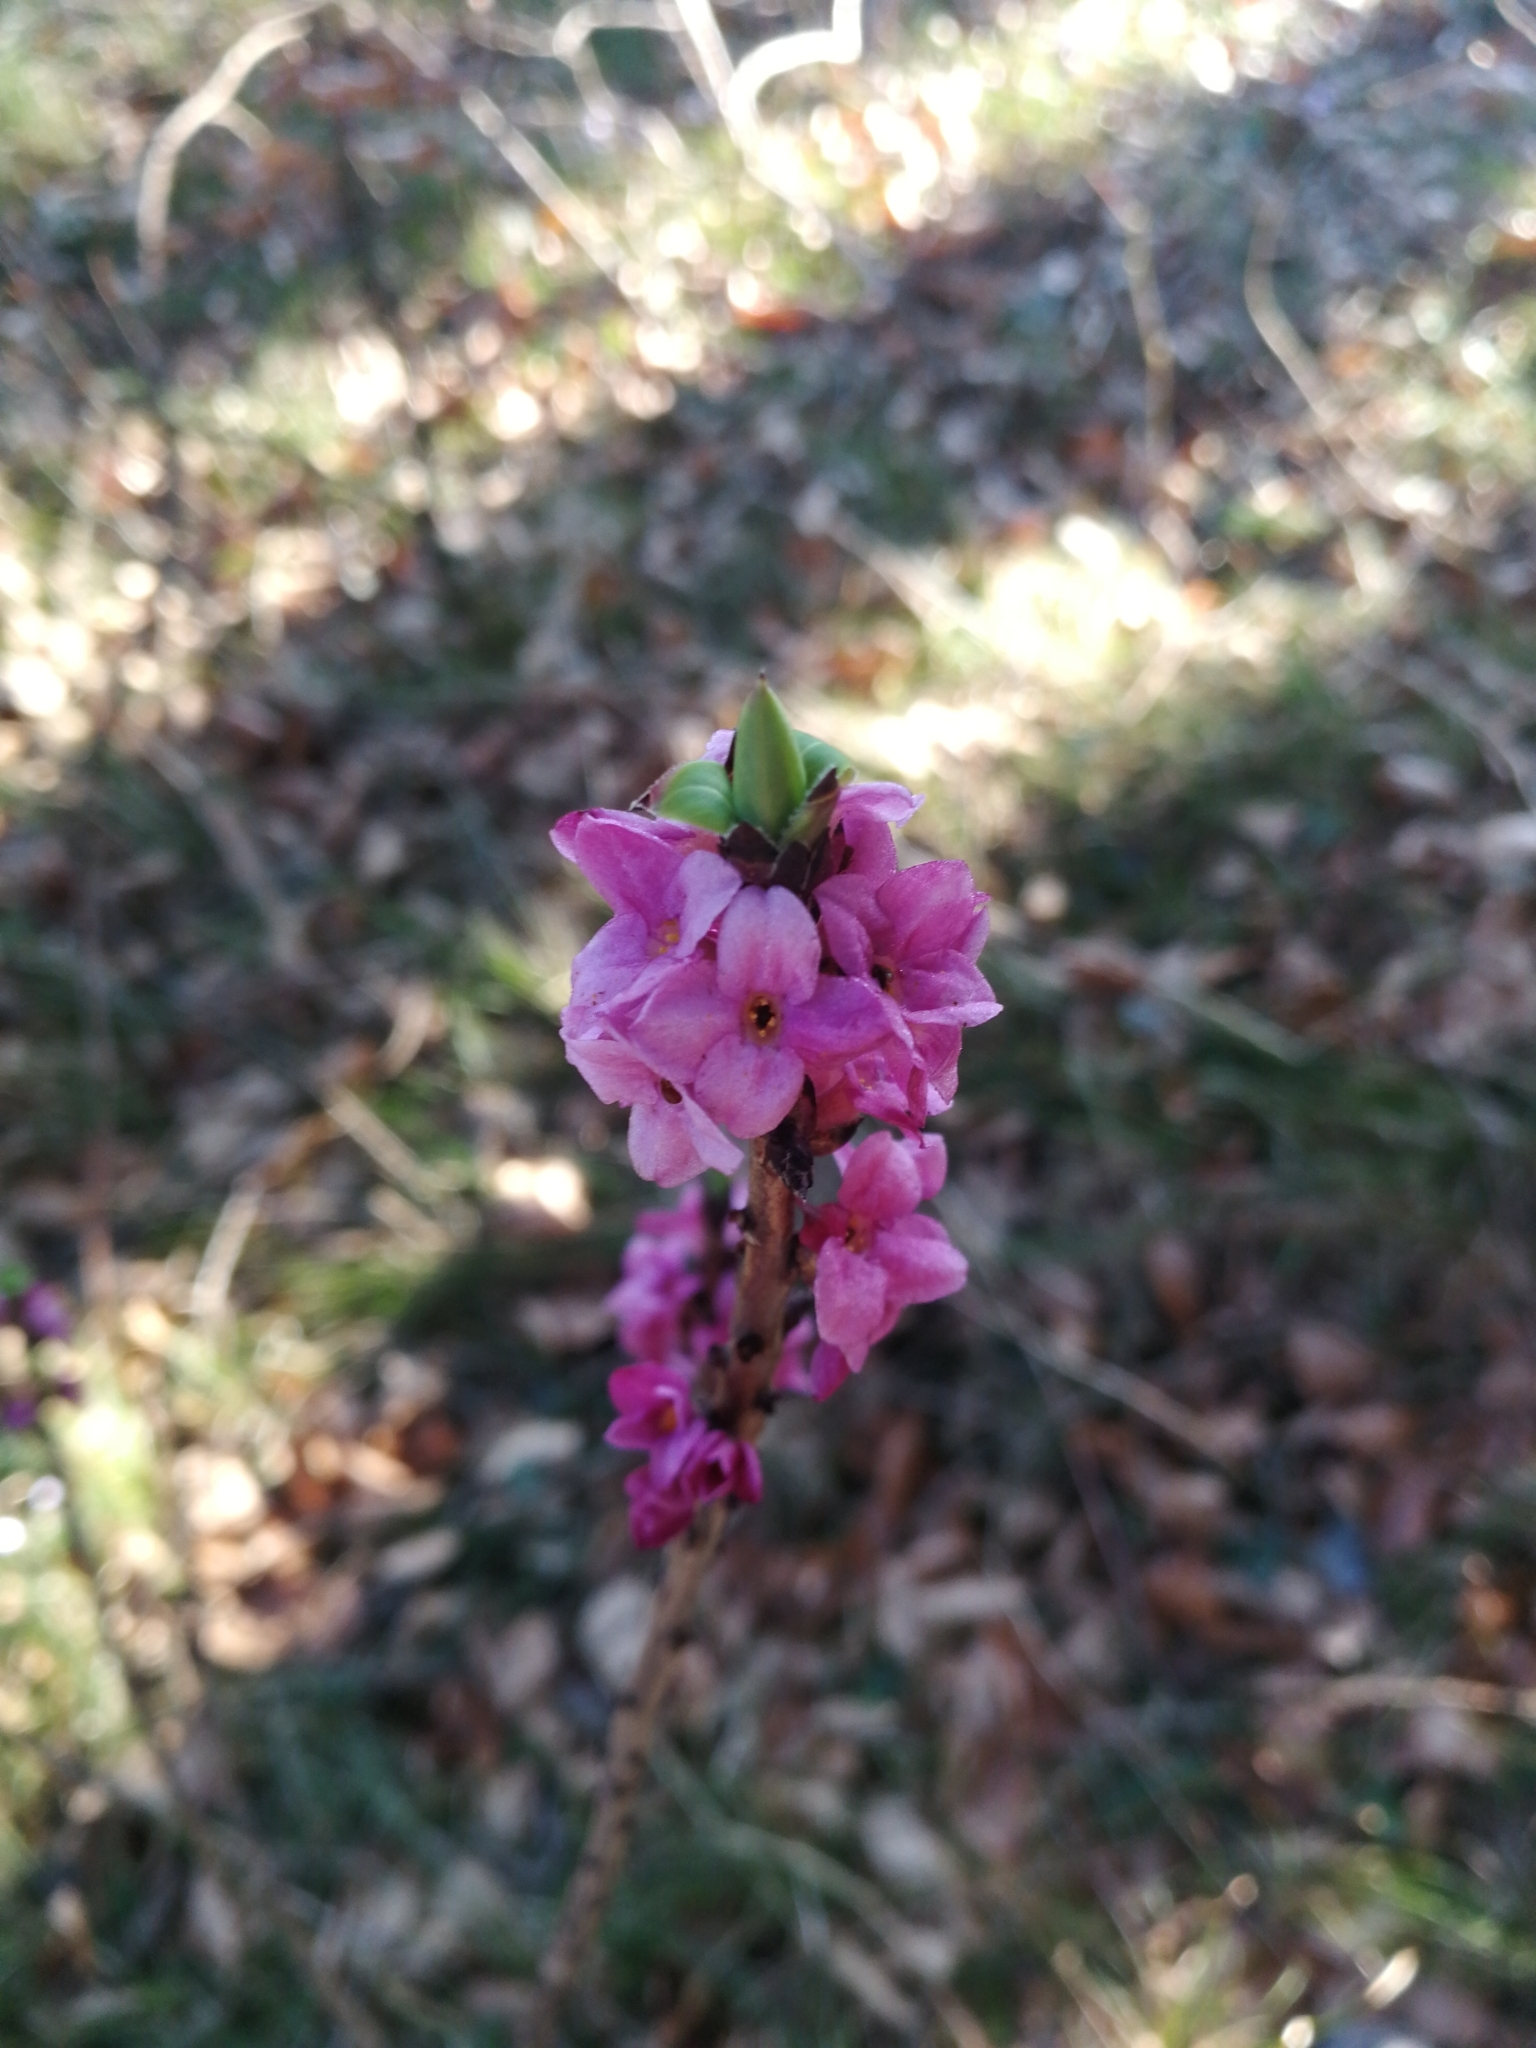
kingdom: Plantae
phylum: Tracheophyta
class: Magnoliopsida
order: Malvales
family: Thymelaeaceae
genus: Daphne
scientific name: Daphne mezereum
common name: Mezereon
